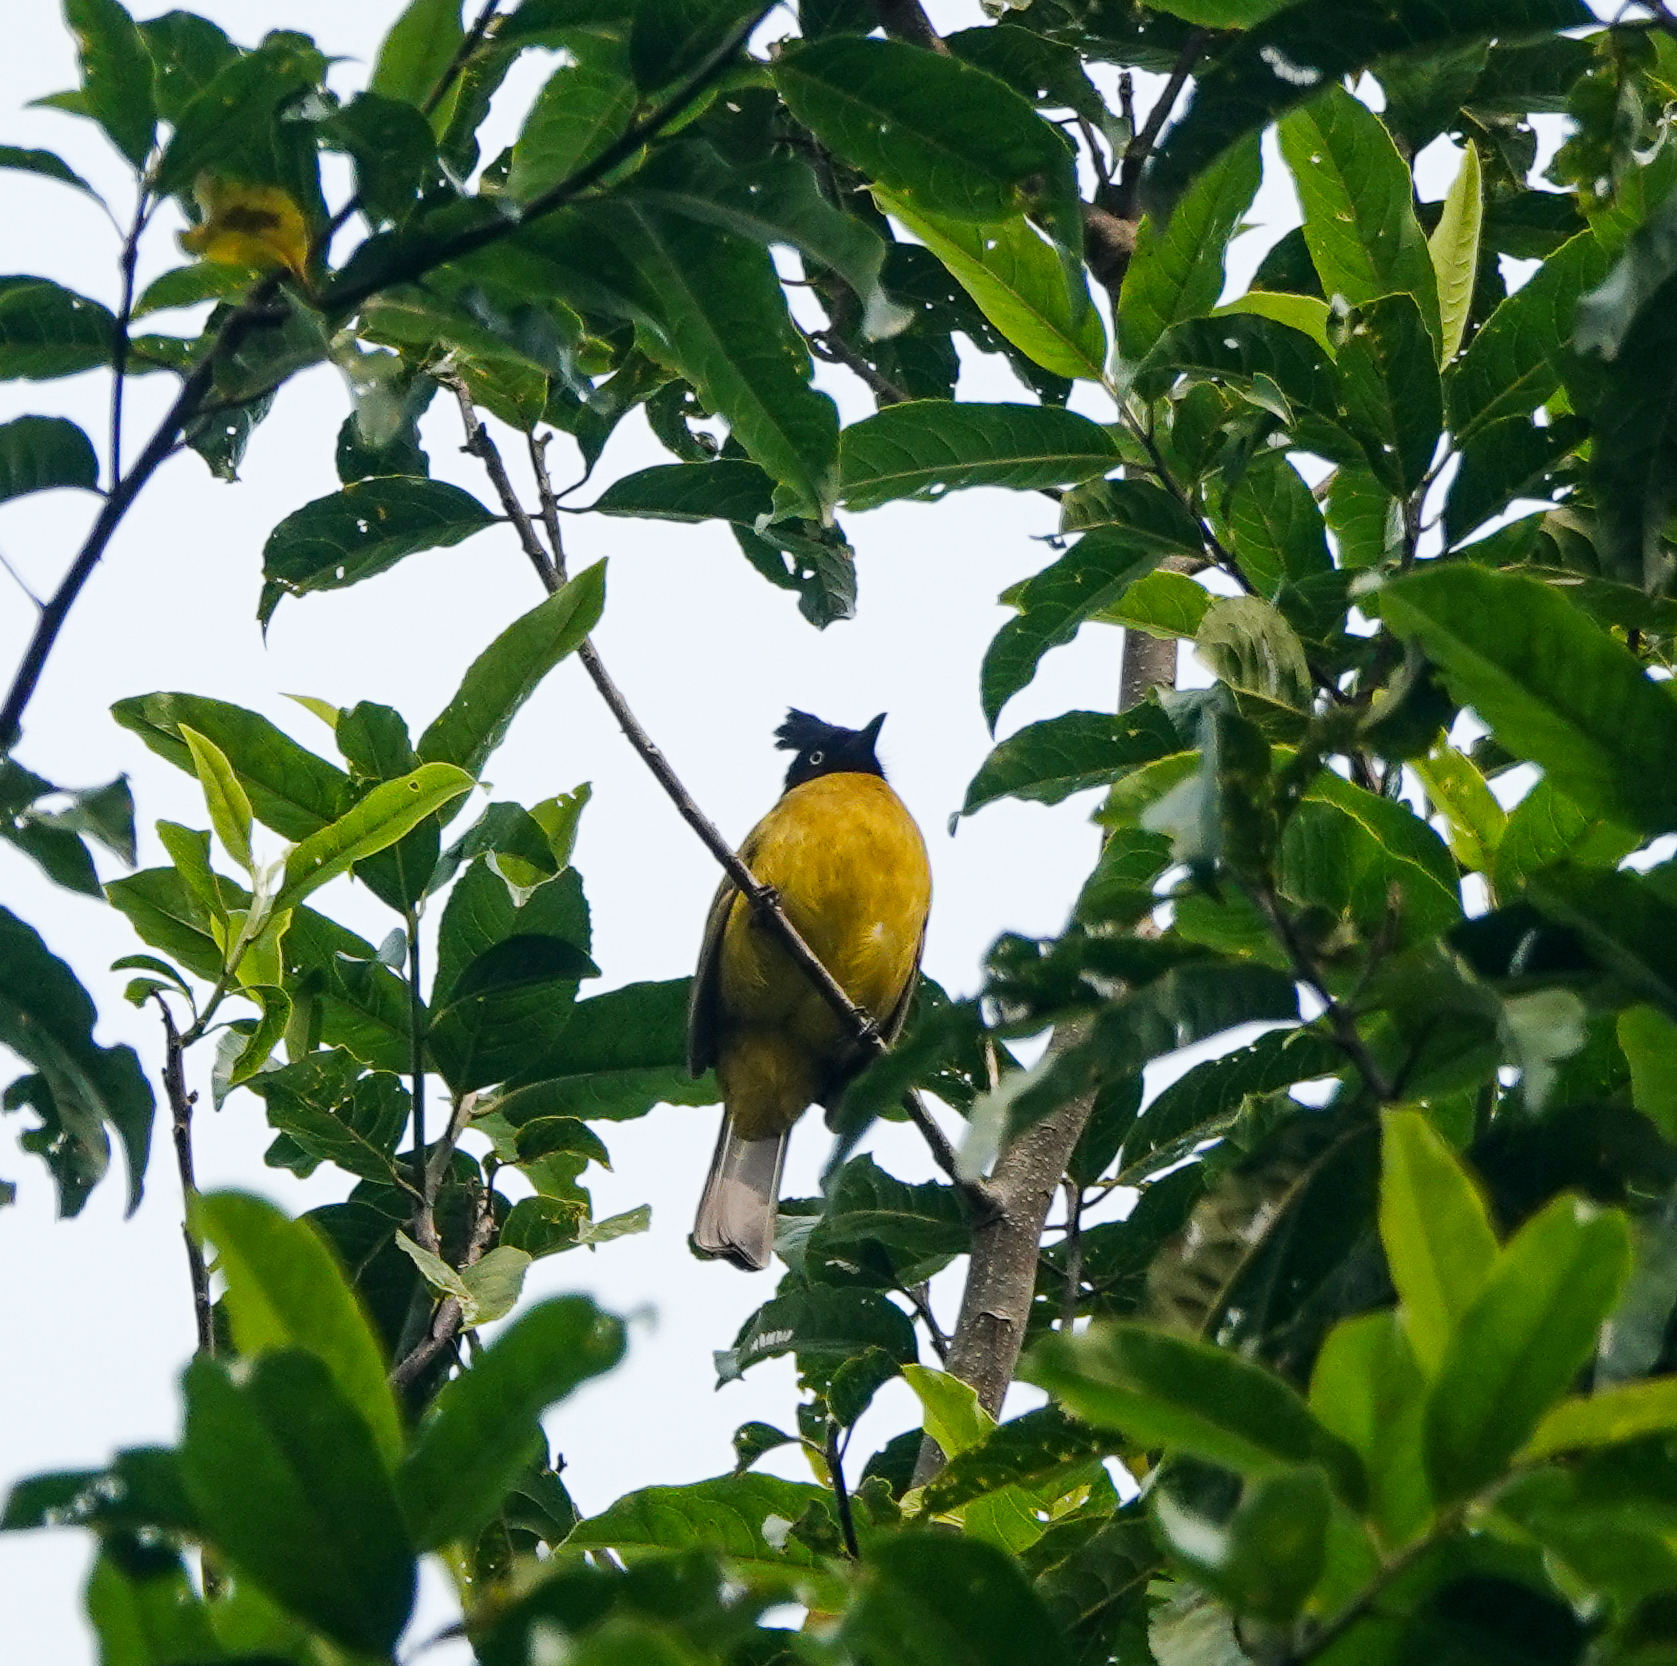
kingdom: Animalia
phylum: Chordata
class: Aves
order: Passeriformes
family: Pycnonotidae
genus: Pycnonotus
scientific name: Pycnonotus flaviventris
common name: Black-crested bulbul
